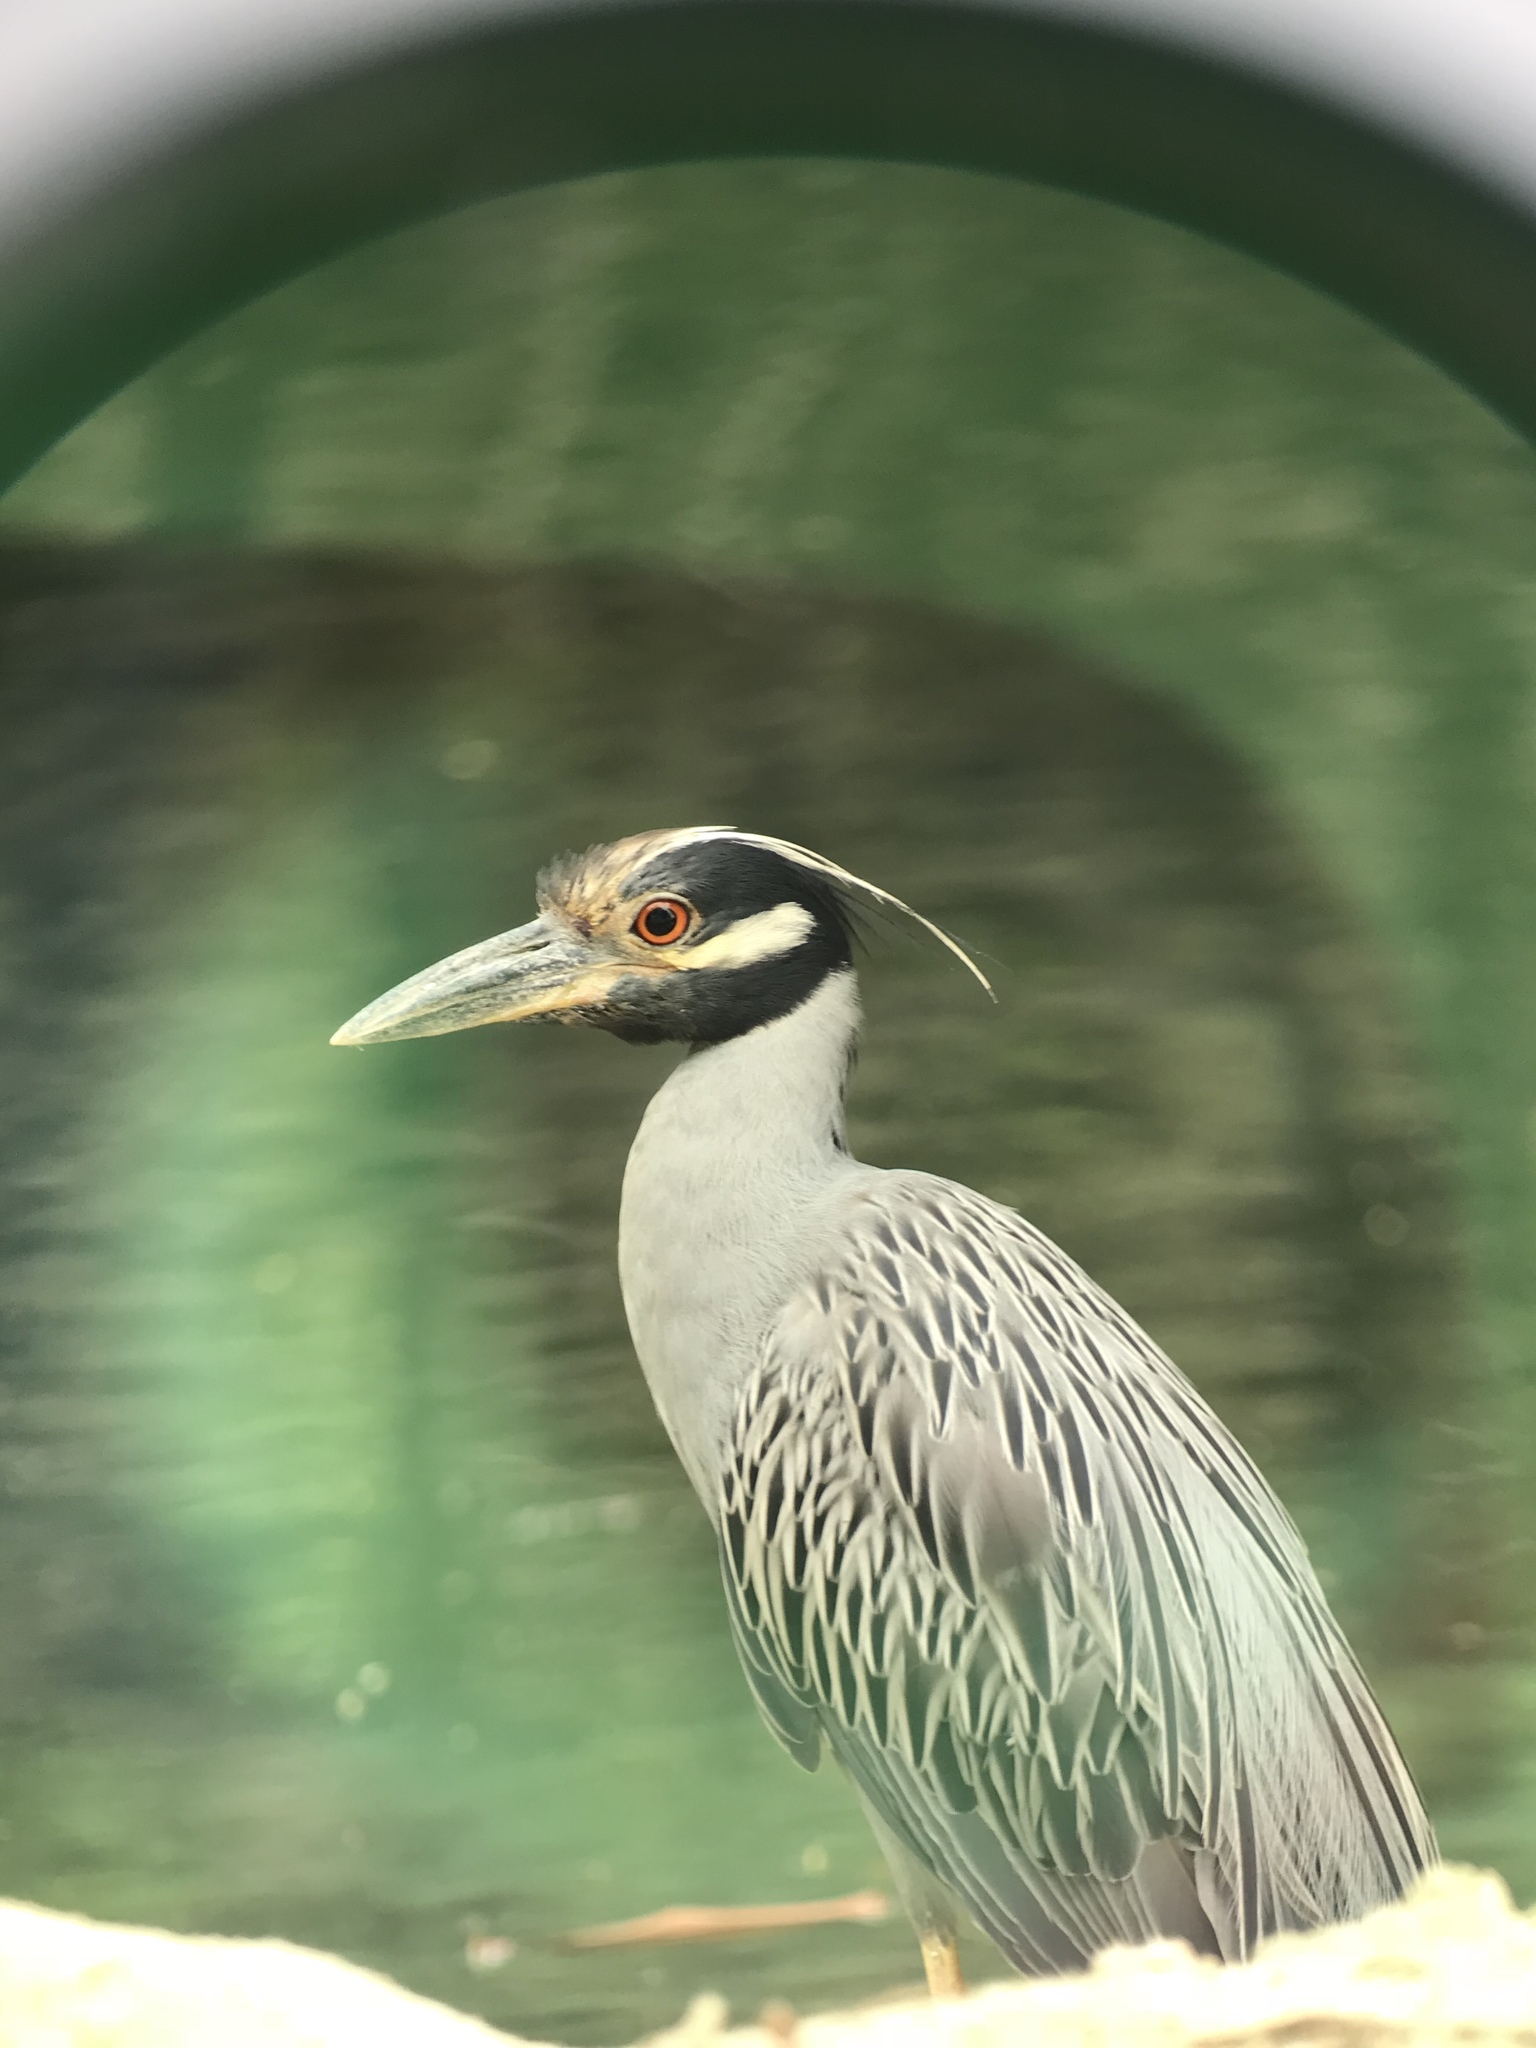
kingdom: Animalia
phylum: Chordata
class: Aves
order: Pelecaniformes
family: Ardeidae
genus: Nyctanassa
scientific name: Nyctanassa violacea
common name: Yellow-crowned night heron
